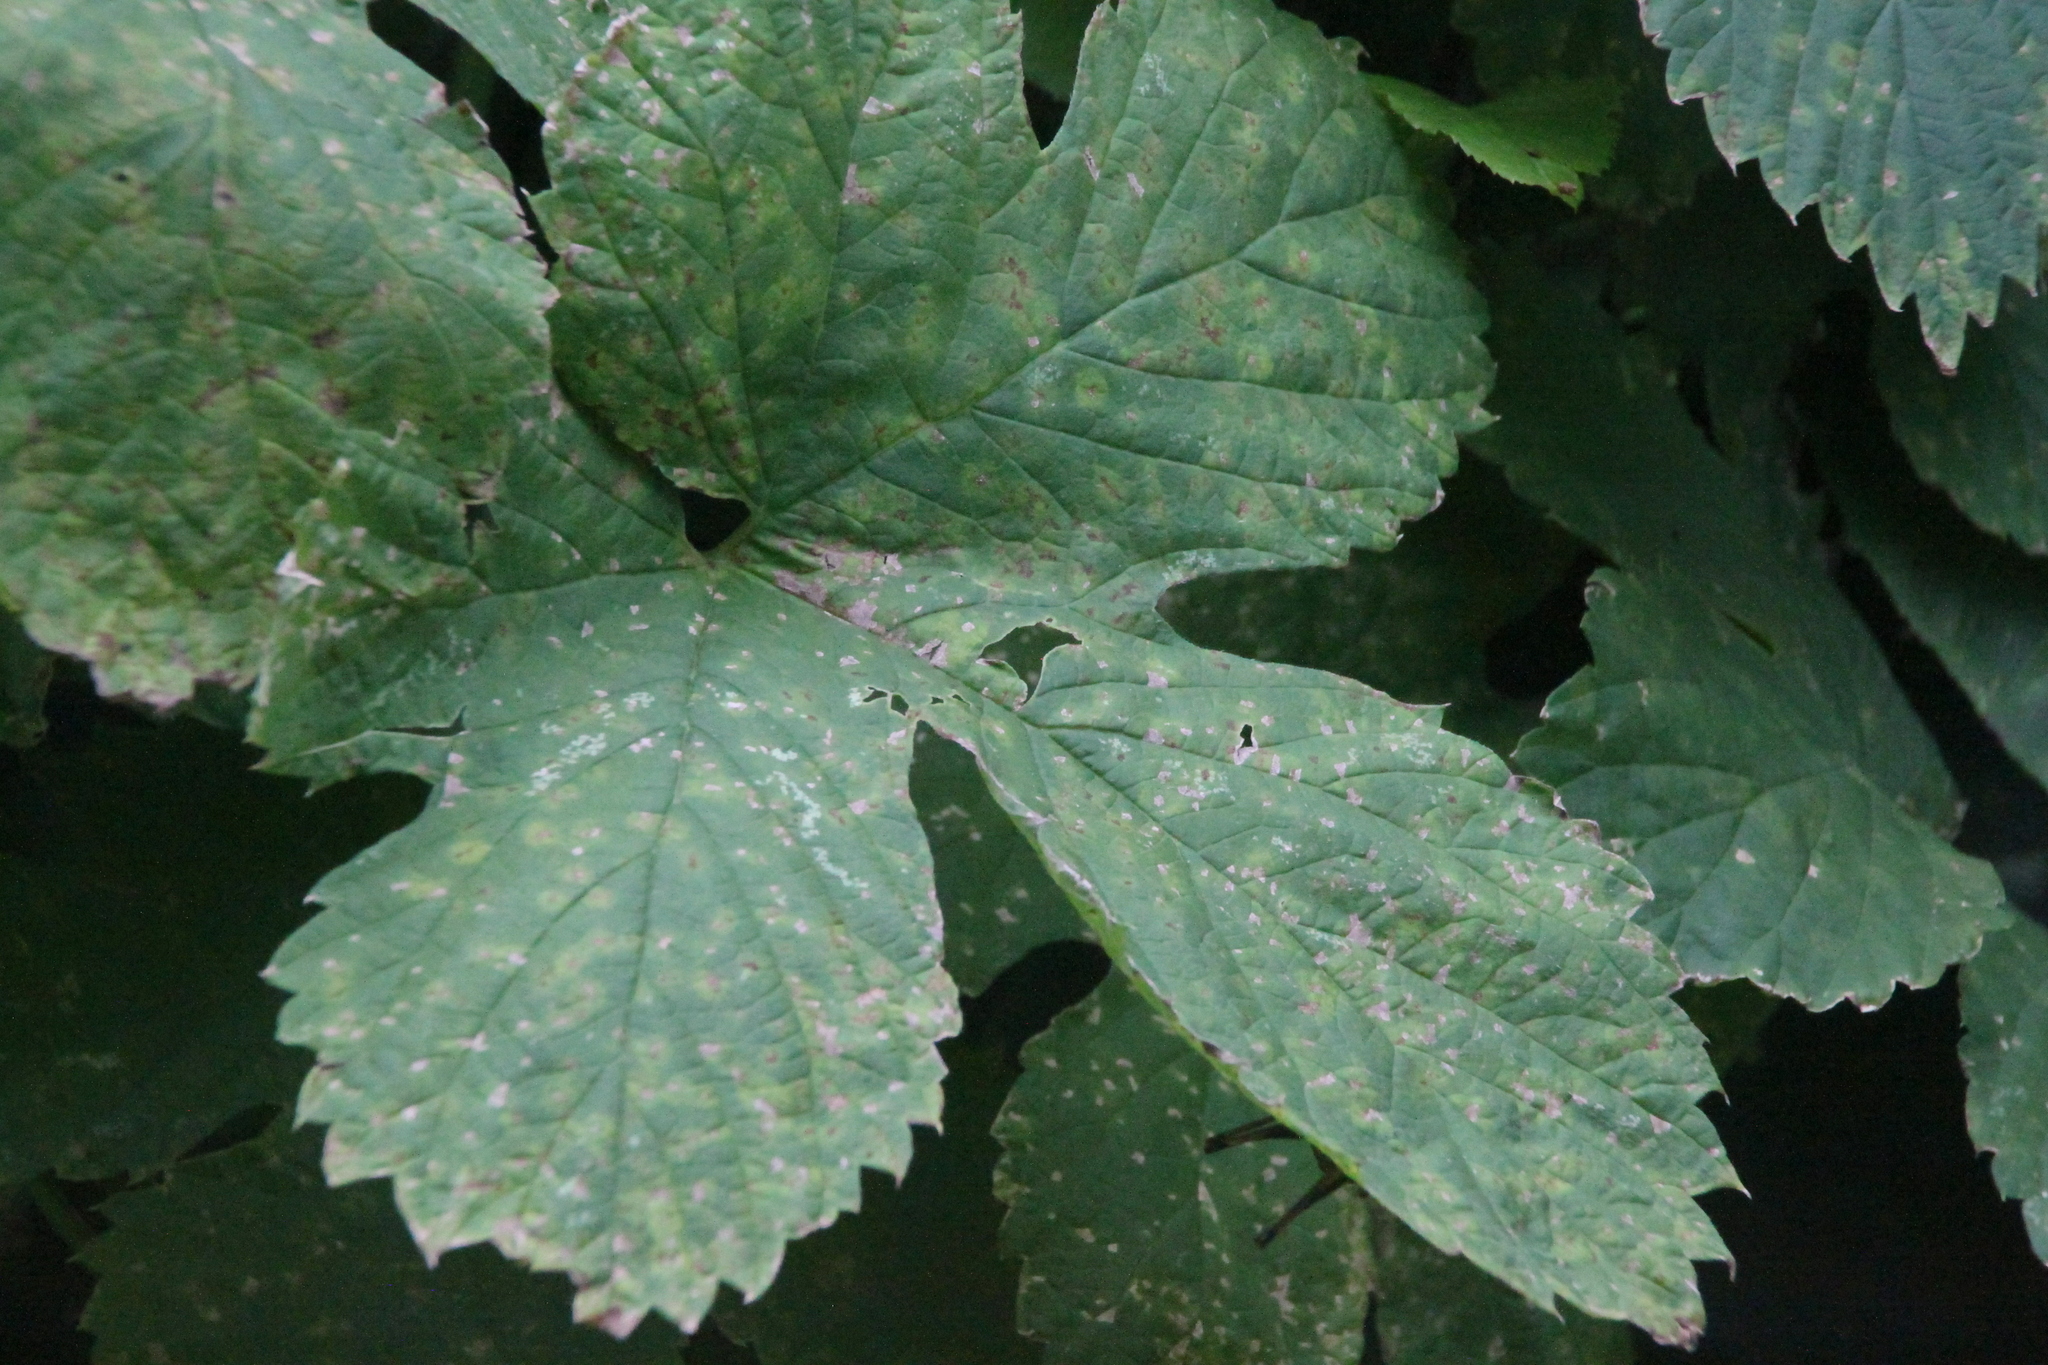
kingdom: Plantae
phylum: Tracheophyta
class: Magnoliopsida
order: Rosales
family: Cannabaceae
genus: Humulus
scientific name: Humulus lupulus
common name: Hop
